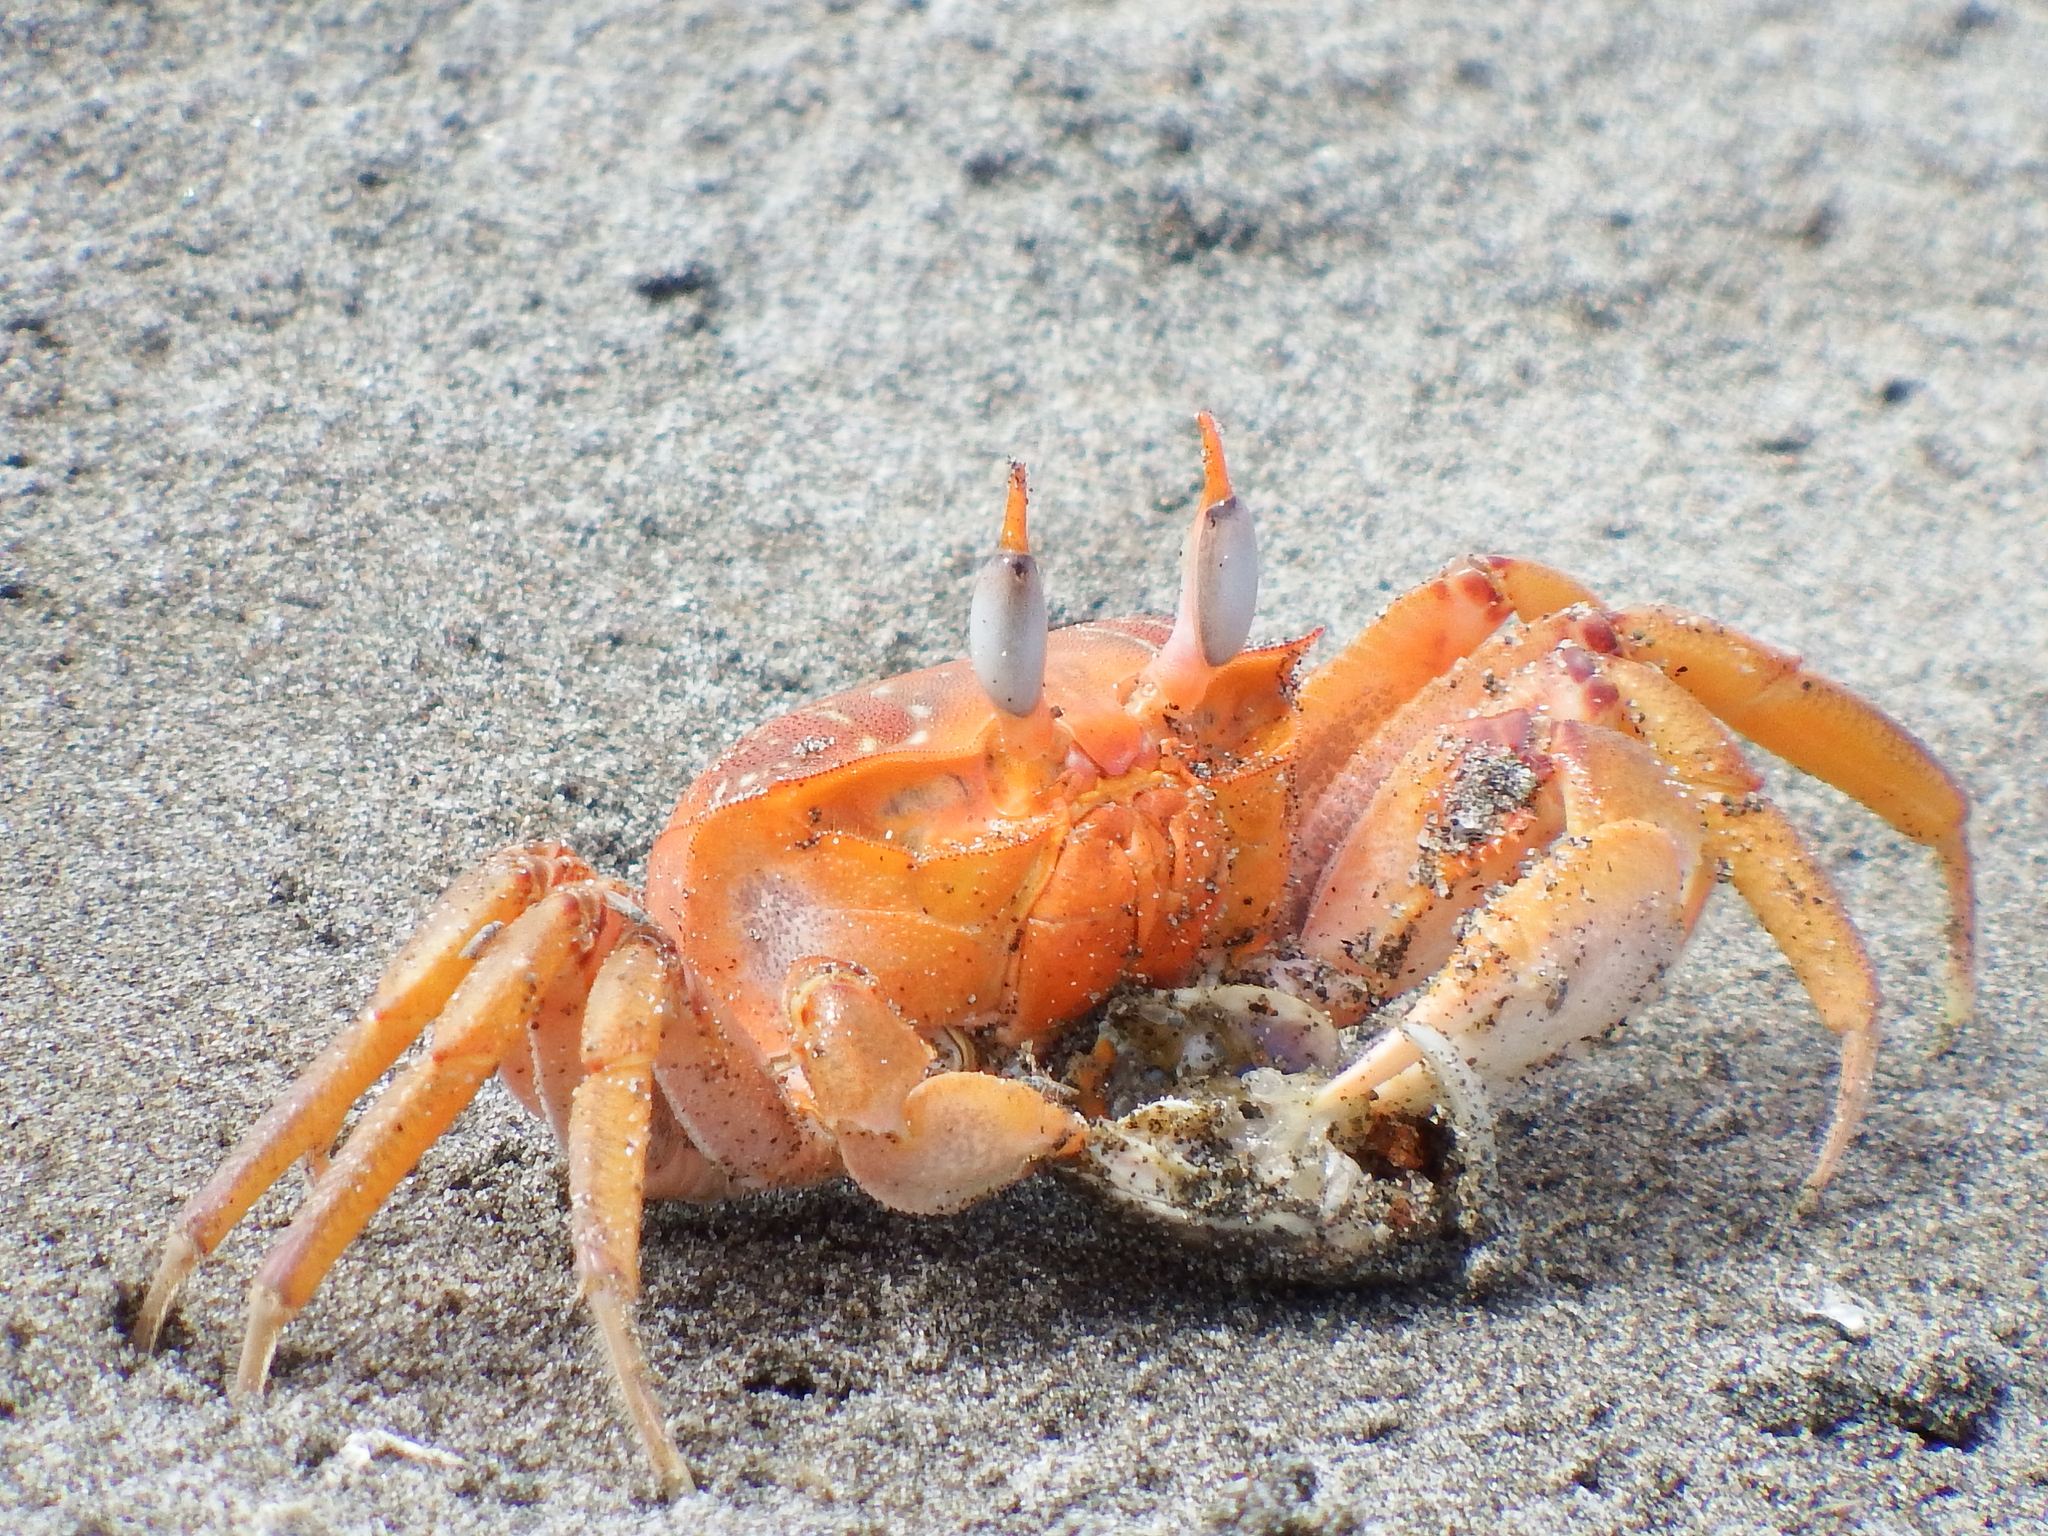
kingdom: Animalia
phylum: Arthropoda
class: Malacostraca
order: Decapoda
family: Ocypodidae
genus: Ocypode
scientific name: Ocypode gaudichaudii
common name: Pacific ghost crab
